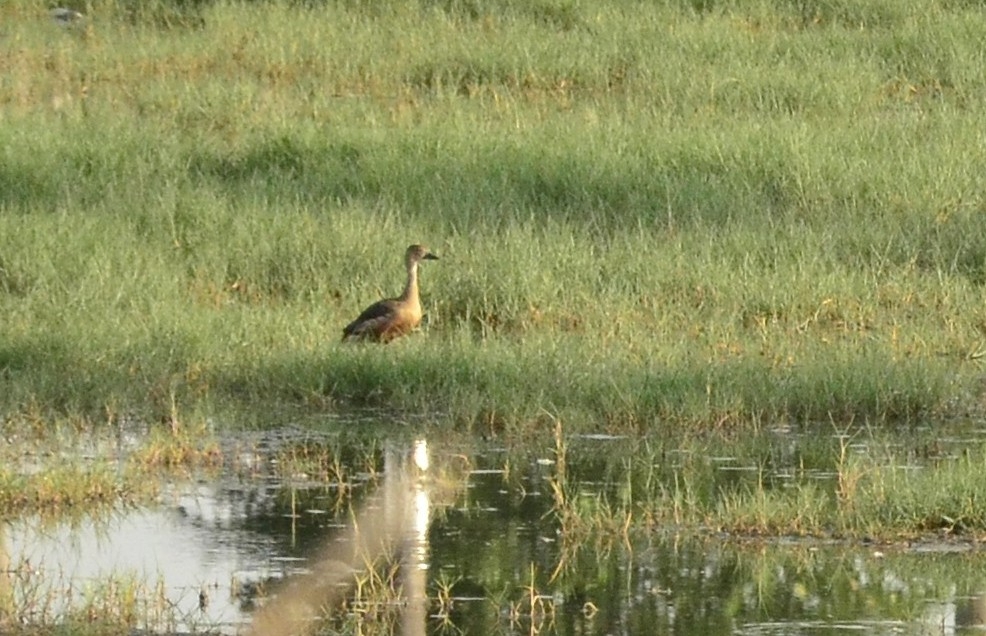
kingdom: Animalia
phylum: Chordata
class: Aves
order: Anseriformes
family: Anatidae
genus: Dendrocygna
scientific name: Dendrocygna javanica
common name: Lesser whistling-duck
